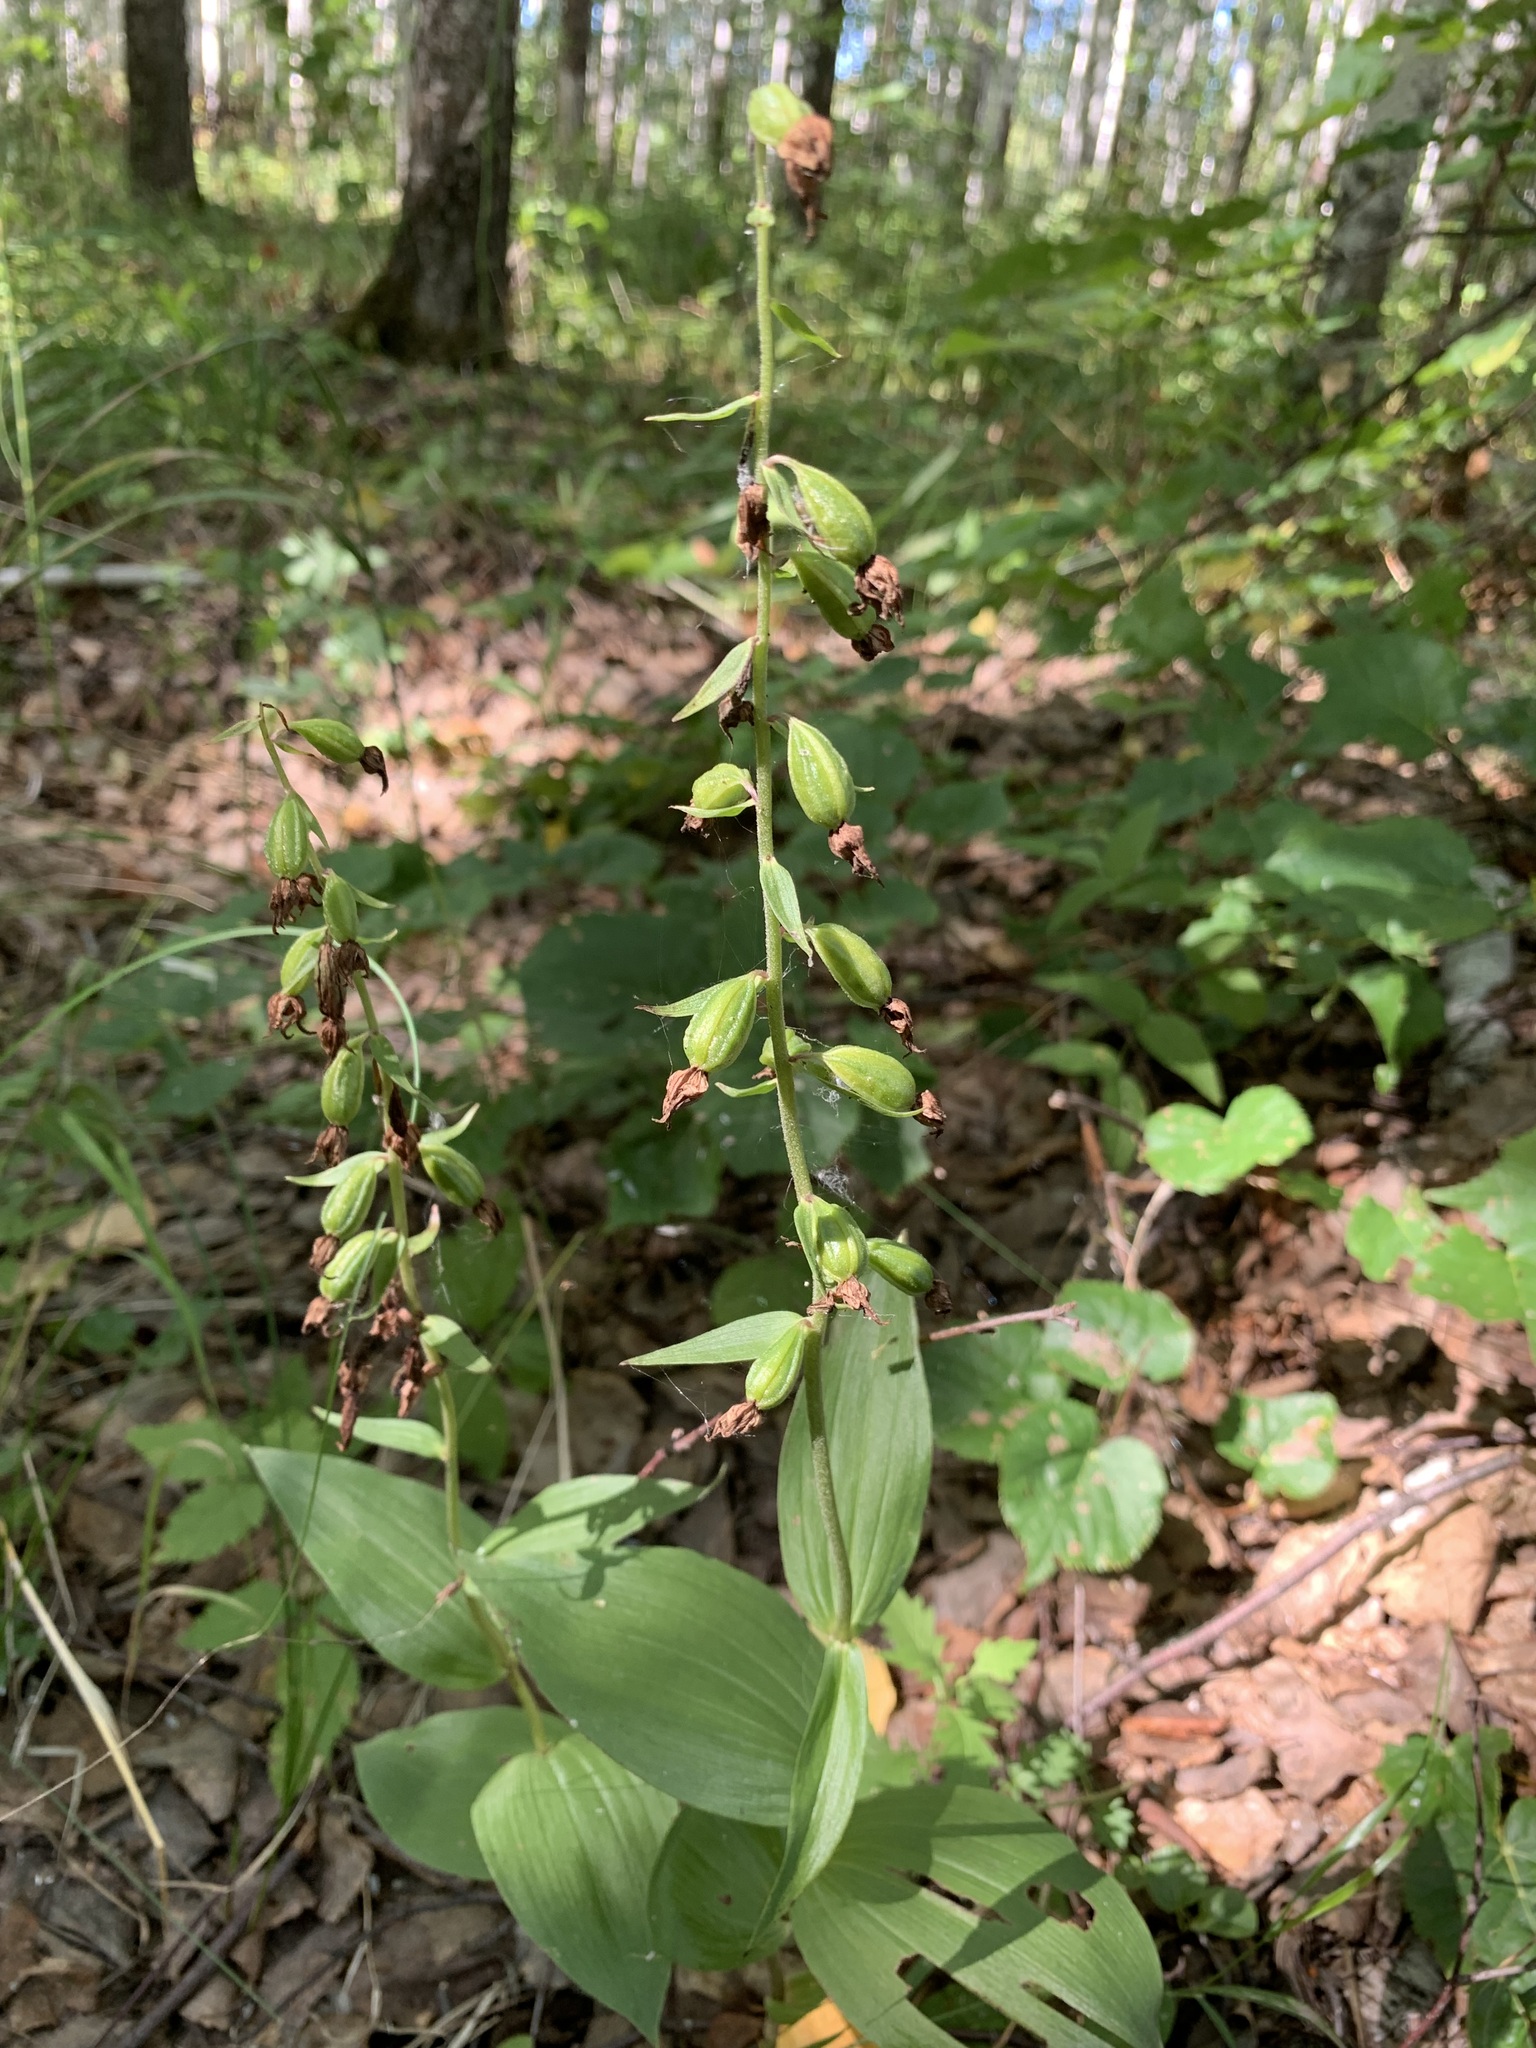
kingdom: Plantae
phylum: Tracheophyta
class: Liliopsida
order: Asparagales
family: Orchidaceae
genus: Epipactis
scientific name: Epipactis helleborine
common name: Broad-leaved helleborine
